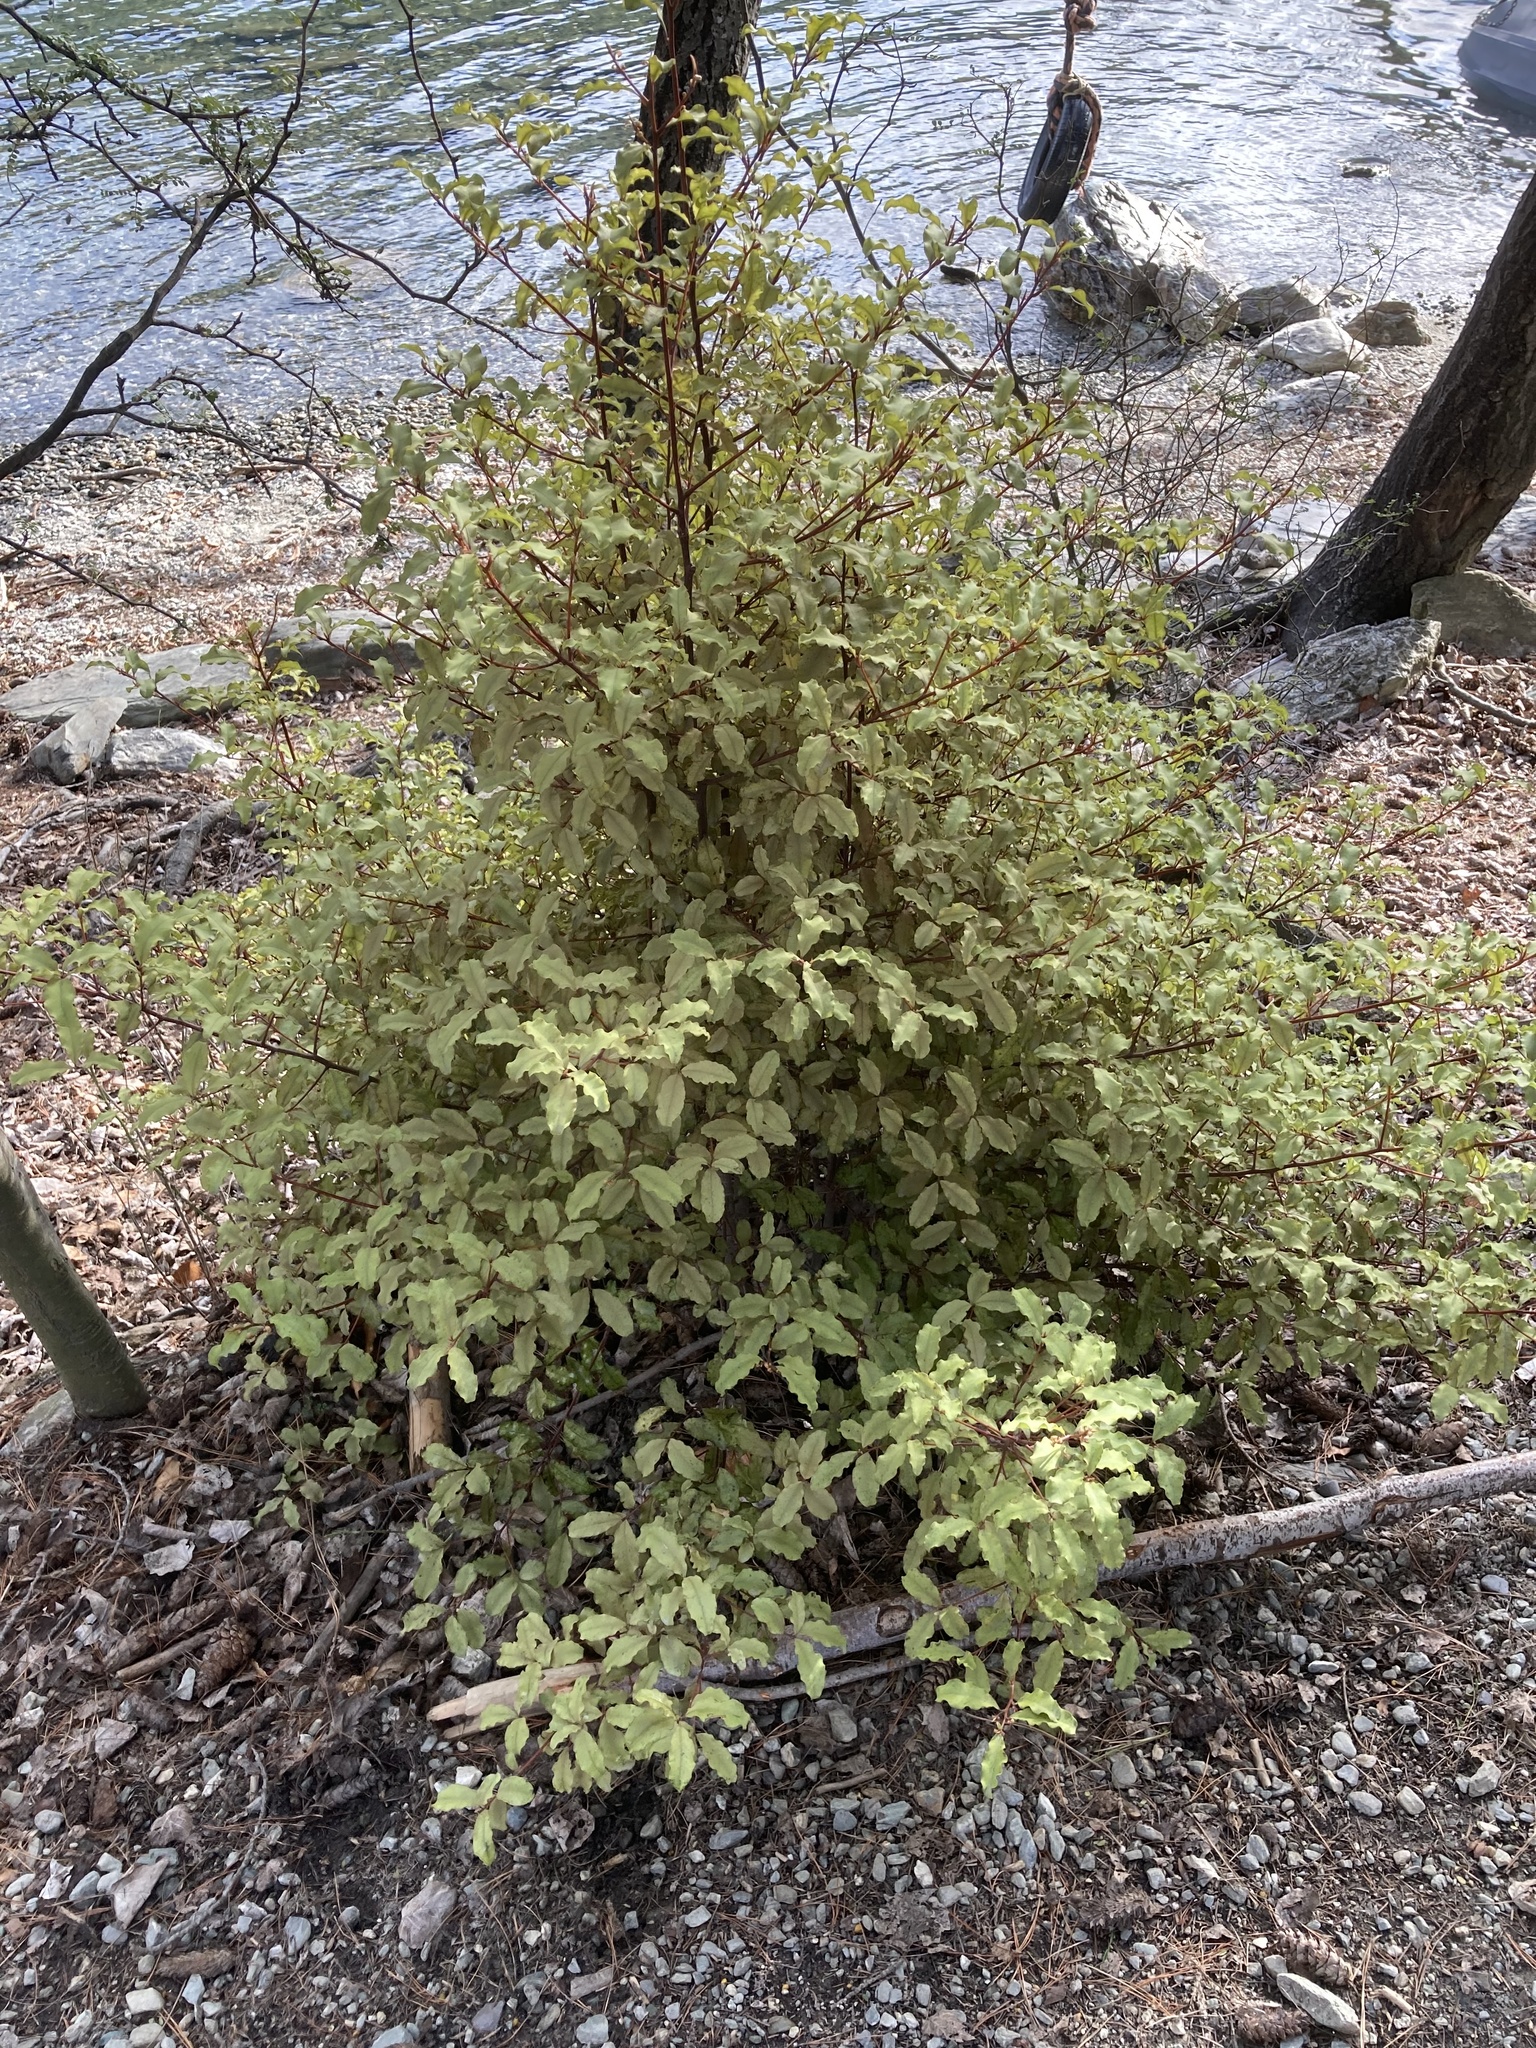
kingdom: Plantae
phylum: Tracheophyta
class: Magnoliopsida
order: Ericales
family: Primulaceae
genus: Myrsine
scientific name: Myrsine australis
